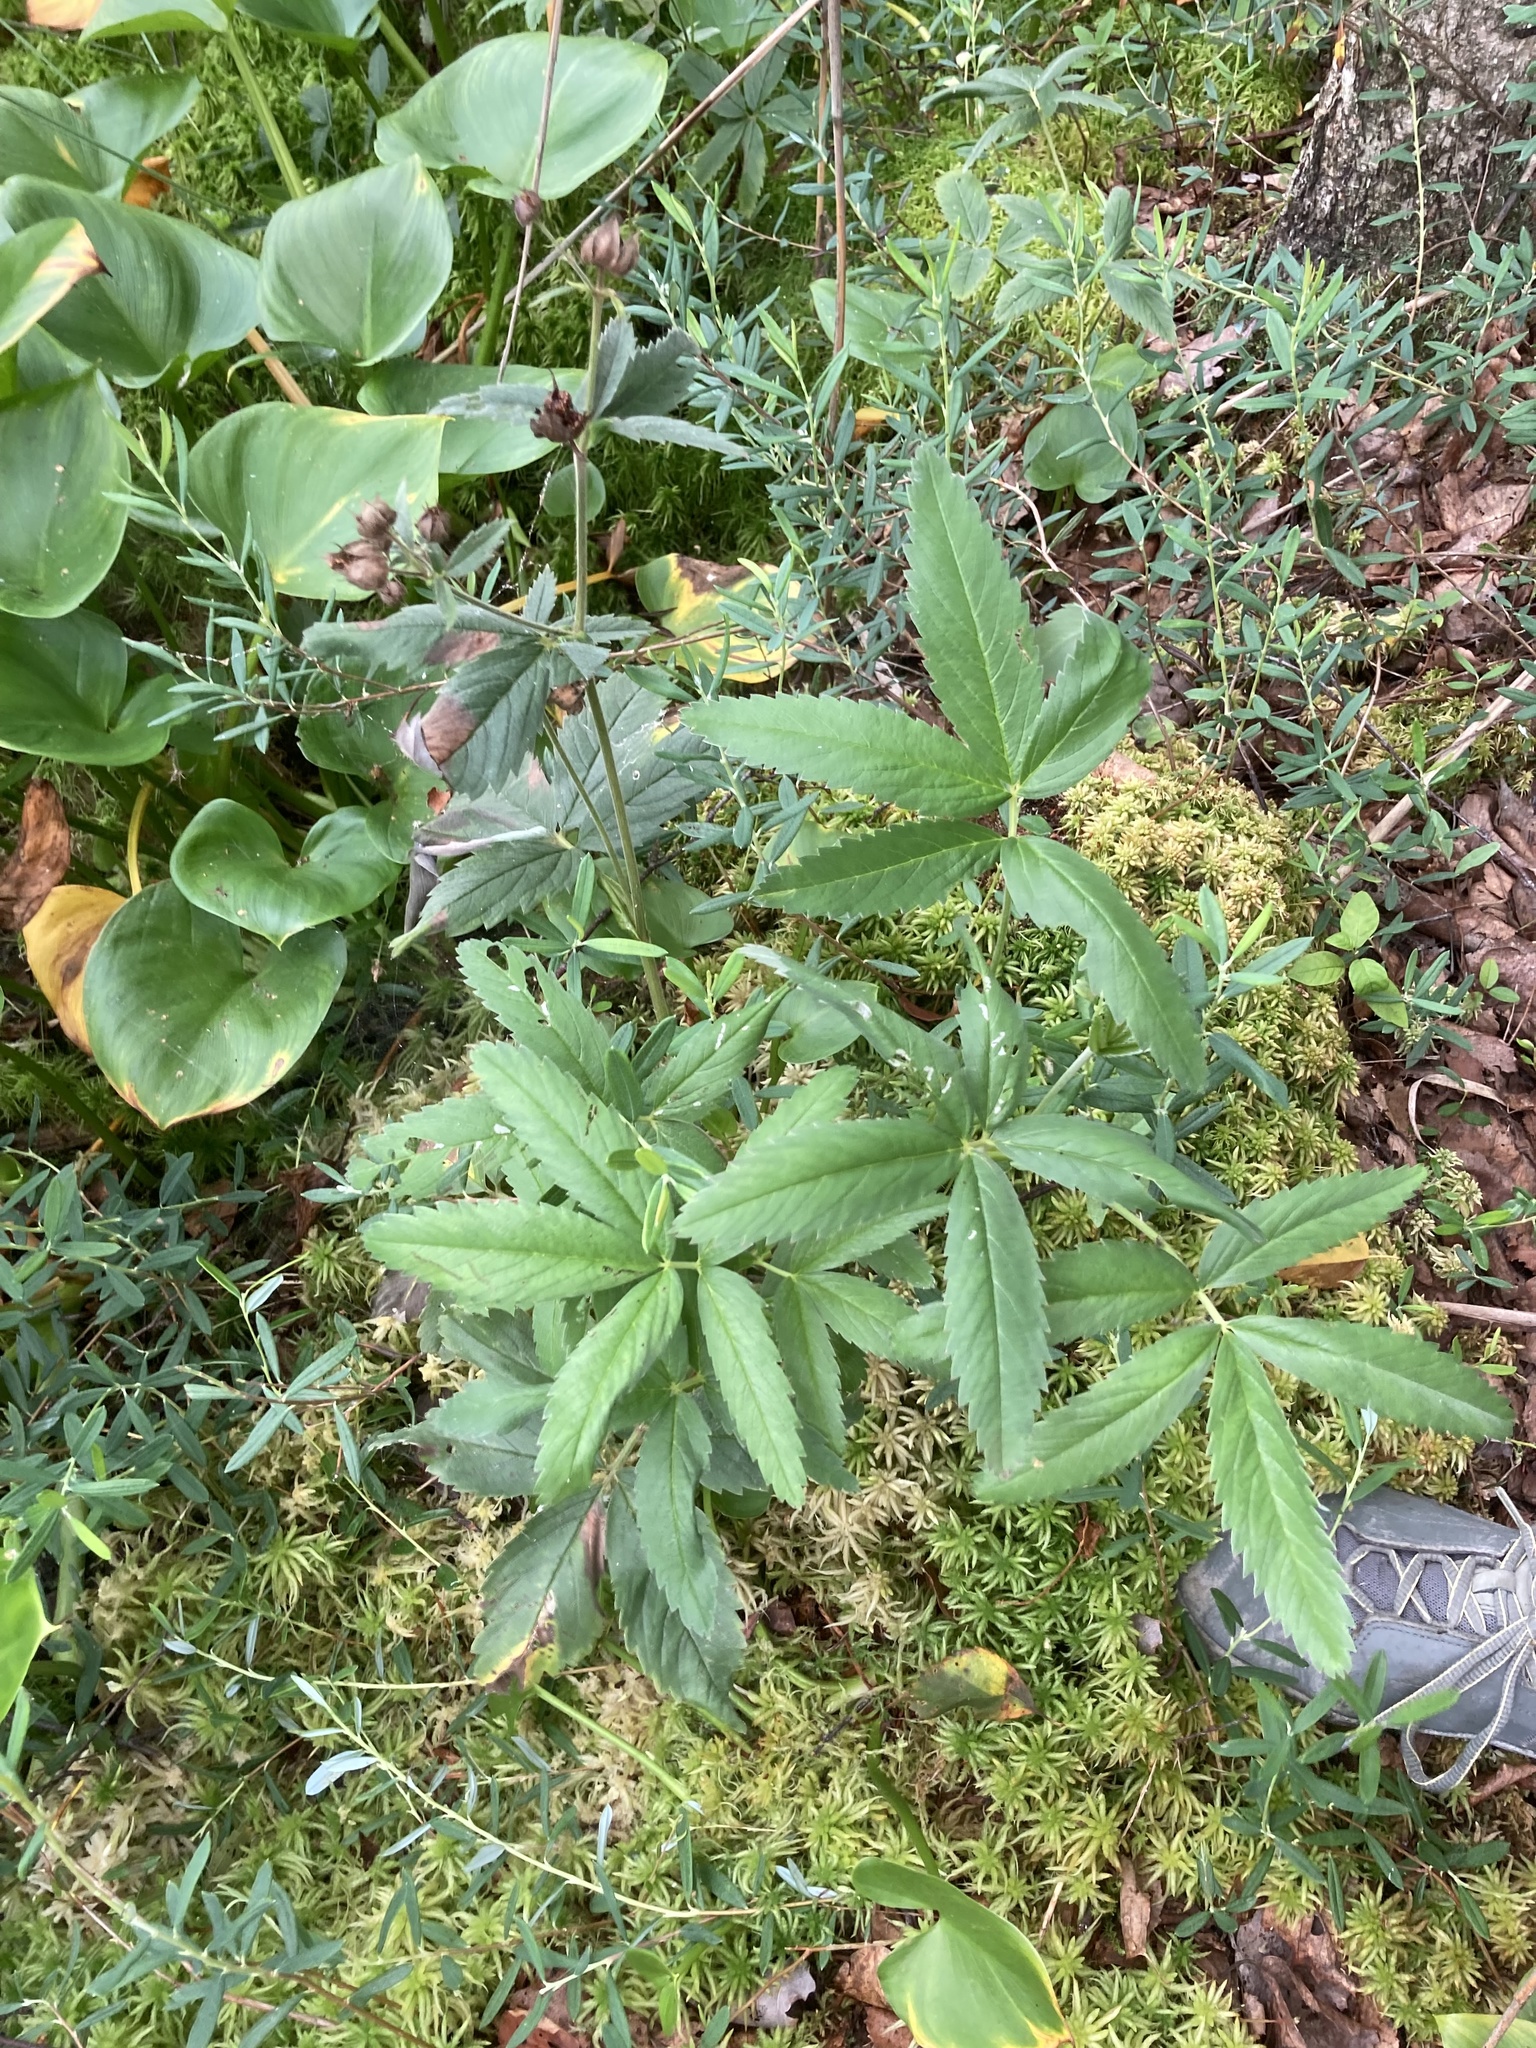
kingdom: Plantae
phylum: Tracheophyta
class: Magnoliopsida
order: Rosales
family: Rosaceae
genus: Comarum
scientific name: Comarum palustre
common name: Marsh cinquefoil
